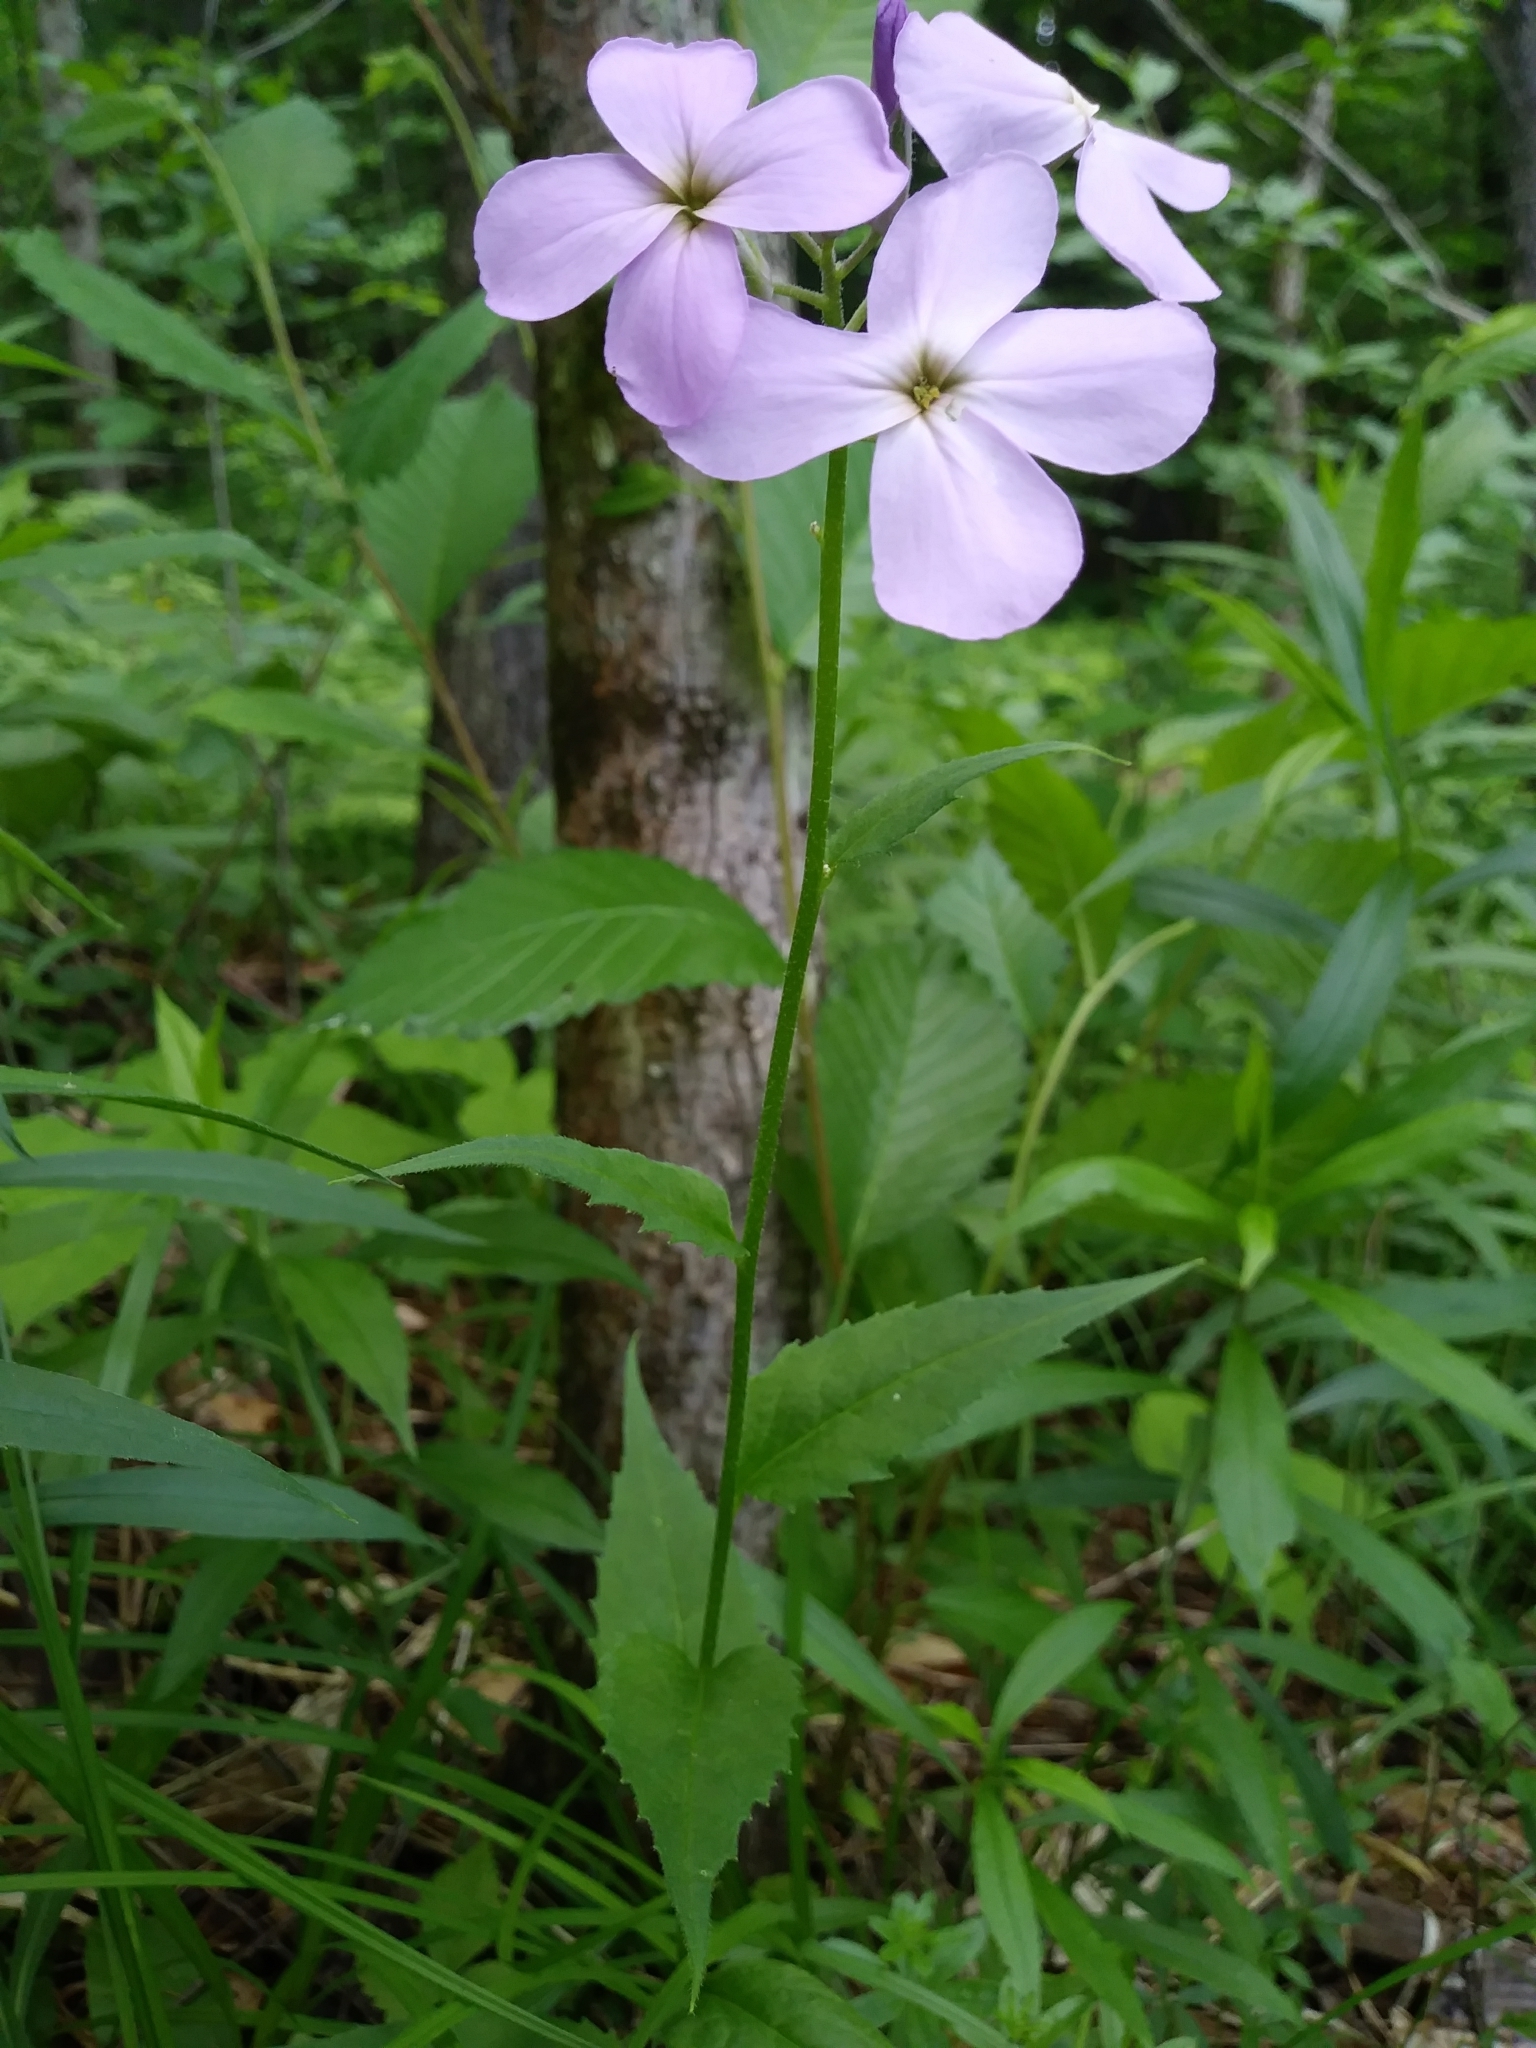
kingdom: Plantae
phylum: Tracheophyta
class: Magnoliopsida
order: Brassicales
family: Brassicaceae
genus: Hesperis
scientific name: Hesperis matronalis
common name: Dame's-violet
